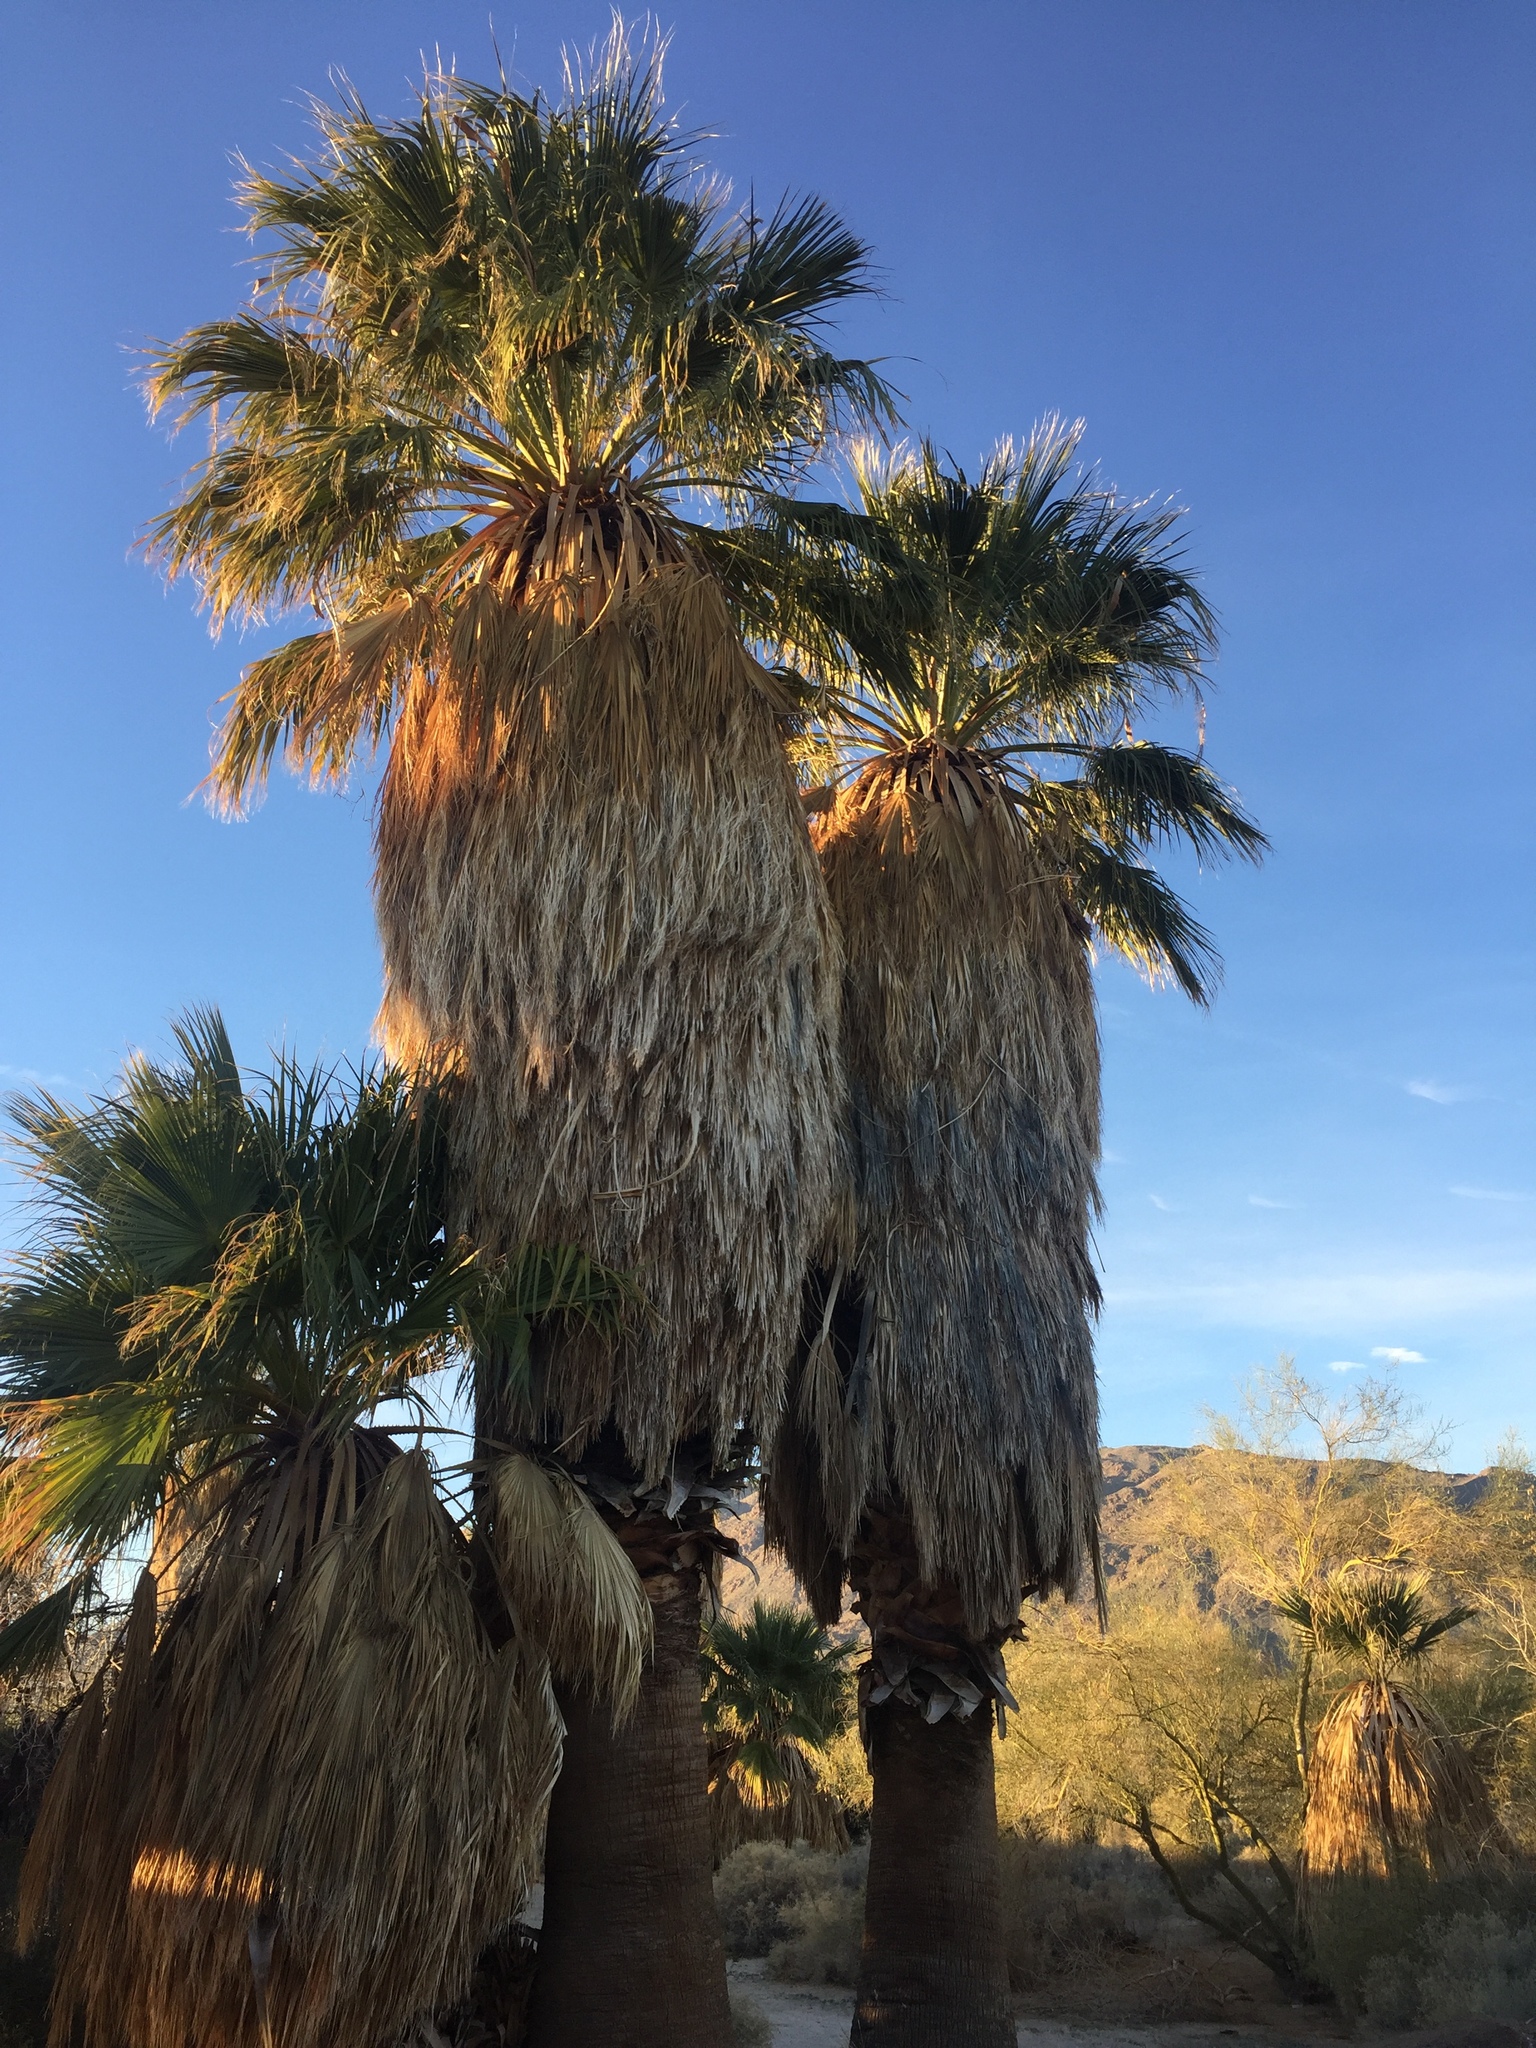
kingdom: Plantae
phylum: Tracheophyta
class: Liliopsida
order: Arecales
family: Arecaceae
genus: Washingtonia
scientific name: Washingtonia filifera
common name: California fan palm
